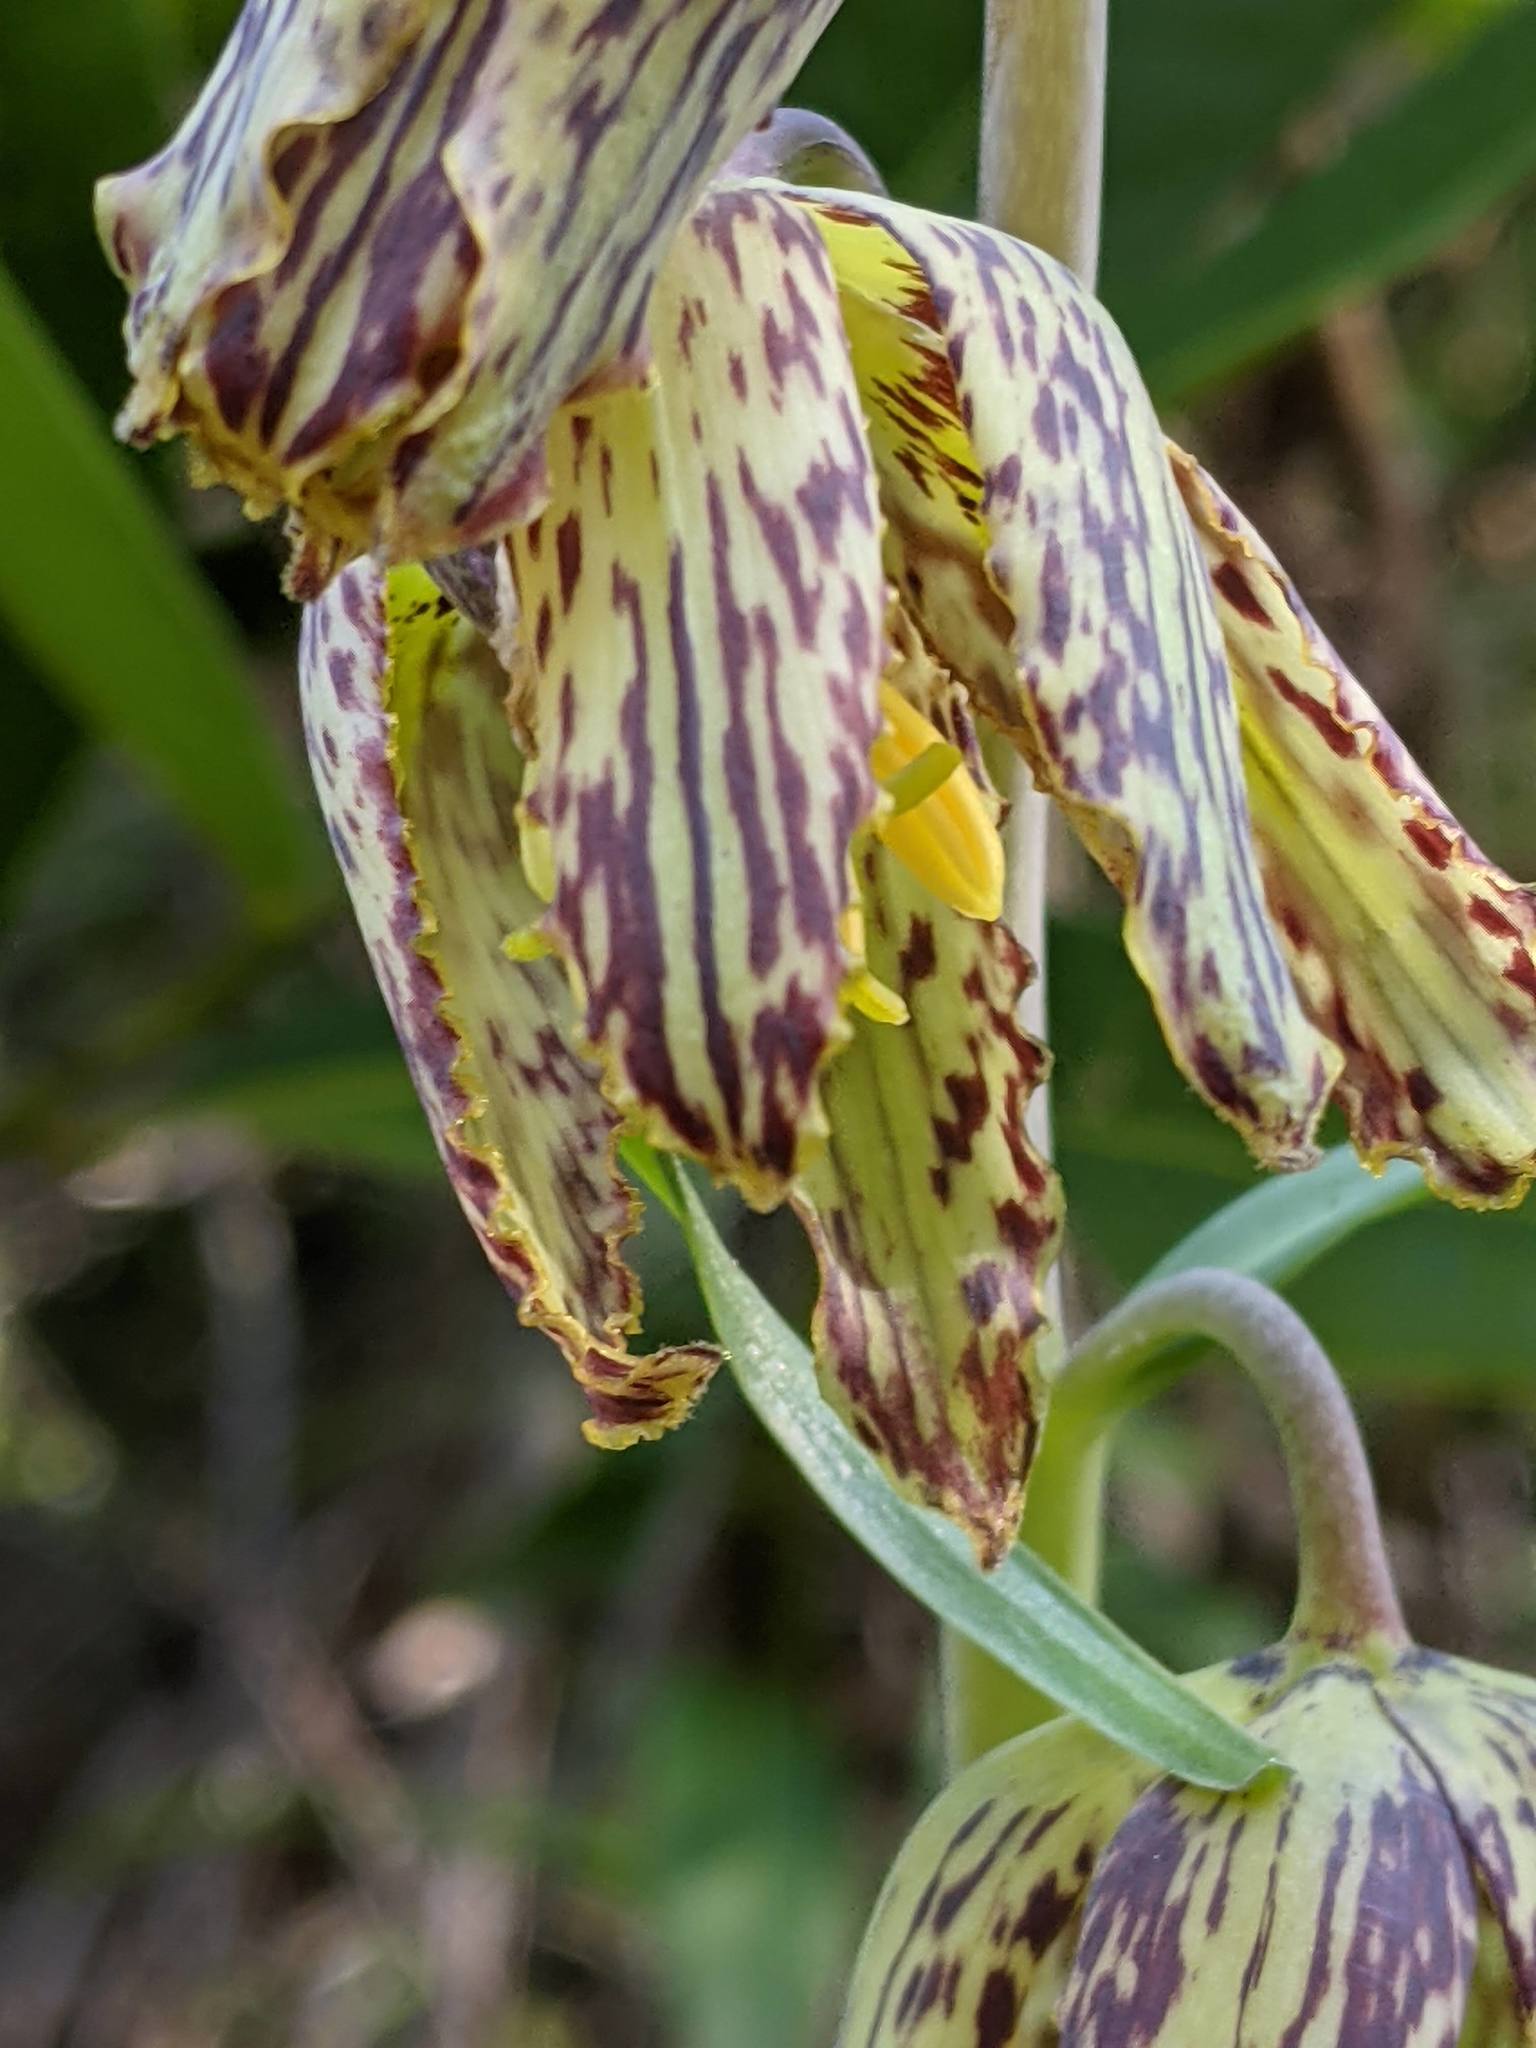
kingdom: Plantae
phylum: Tracheophyta
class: Liliopsida
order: Liliales
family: Liliaceae
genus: Fritillaria
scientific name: Fritillaria affinis
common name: Ojai fritillary
